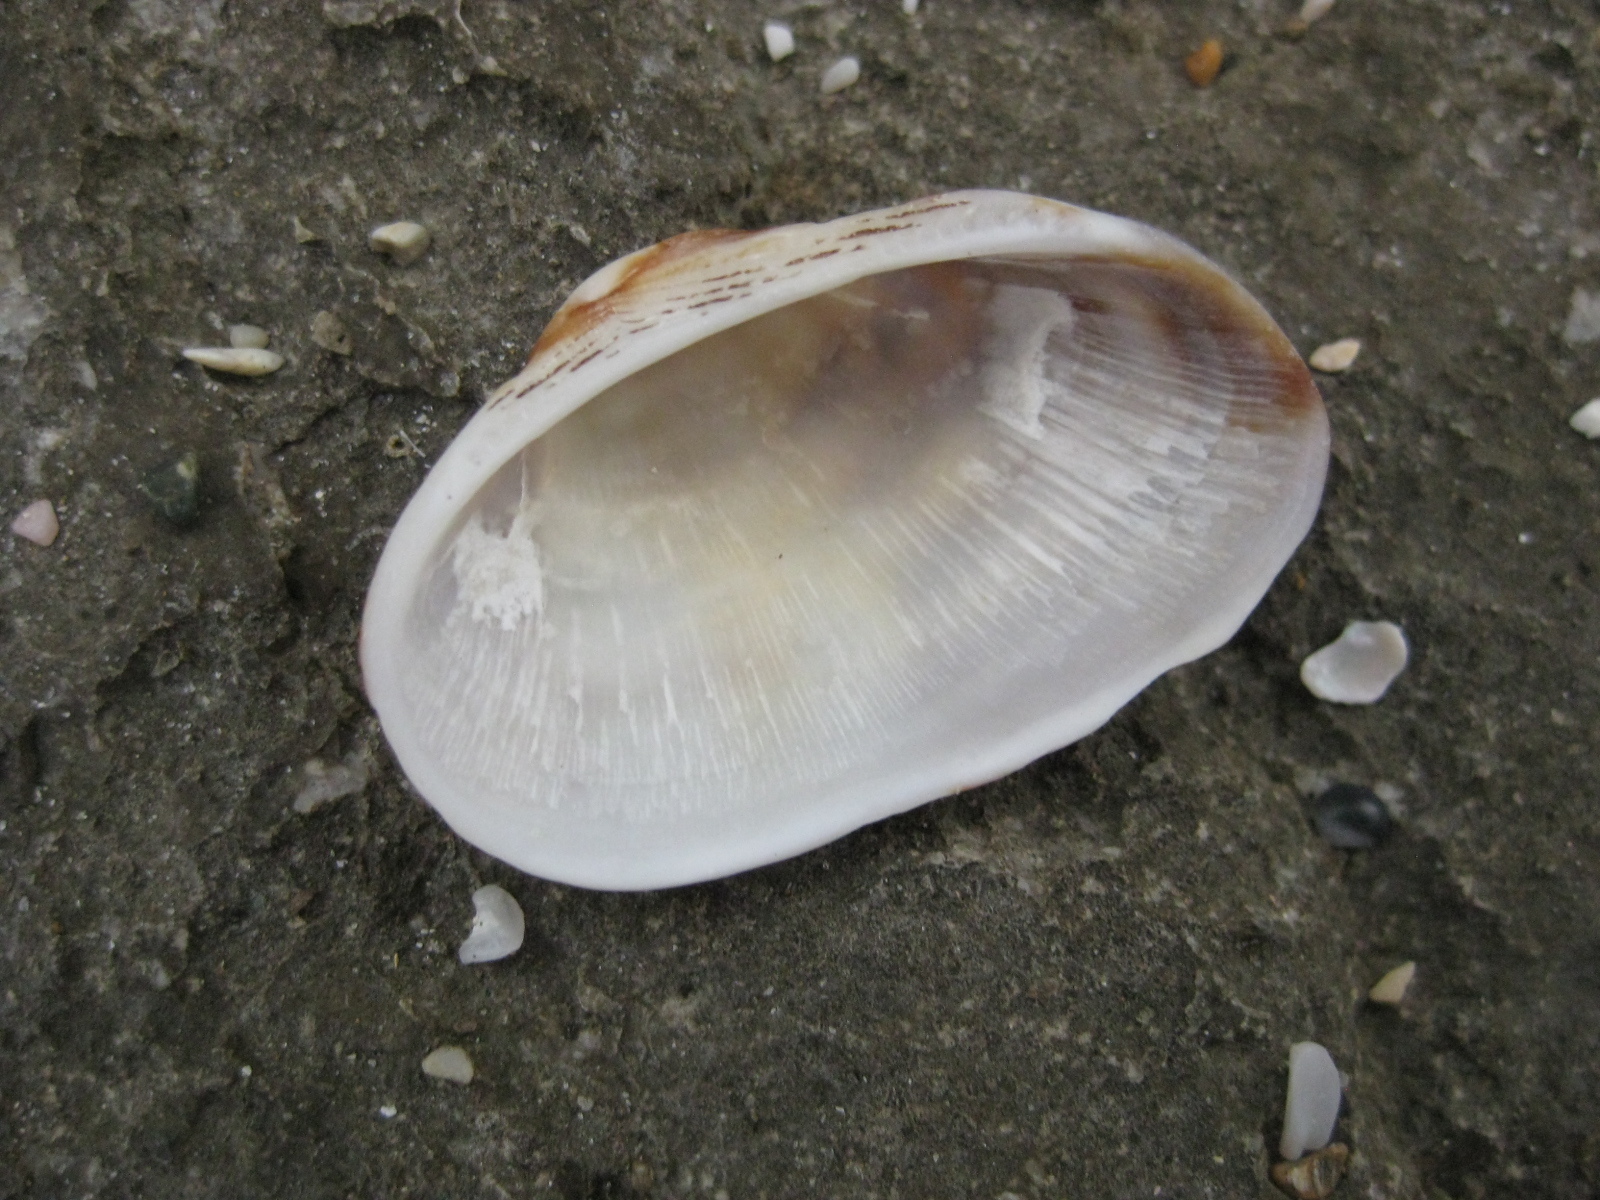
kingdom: Animalia
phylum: Mollusca
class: Bivalvia
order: Arcida
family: Arcidae
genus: Barbatia
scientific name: Barbatia novaezealandiae
